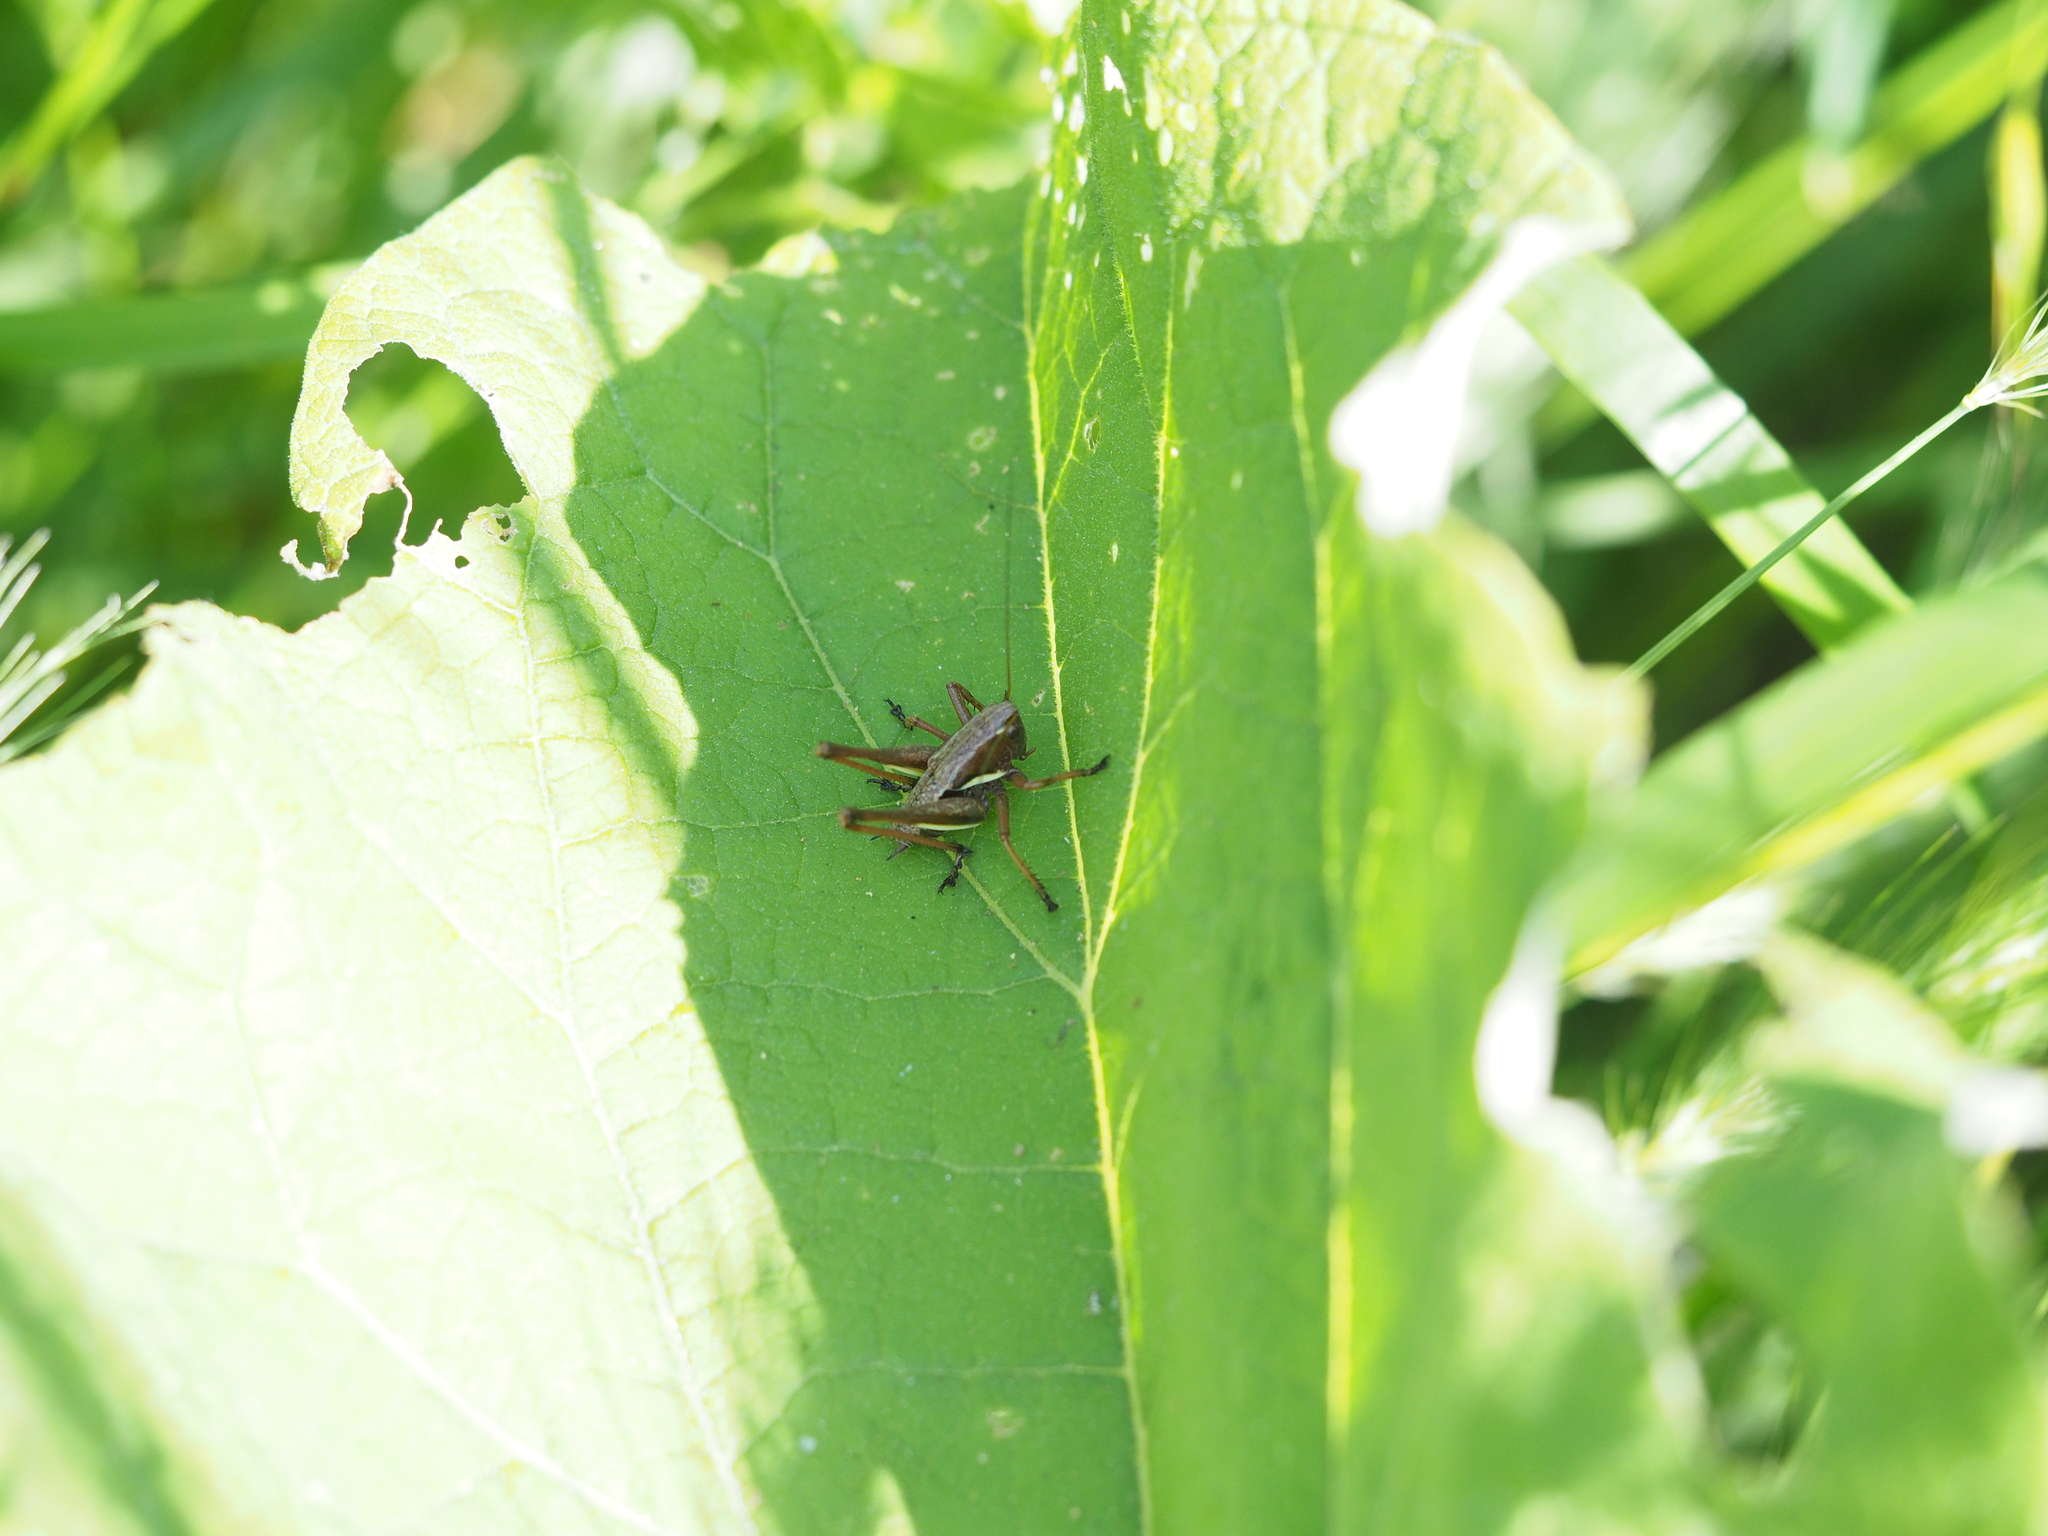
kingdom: Animalia
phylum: Arthropoda
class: Insecta
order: Orthoptera
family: Tettigoniidae
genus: Pholidoptera
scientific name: Pholidoptera aptera
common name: Alpine dark bush-cricket
